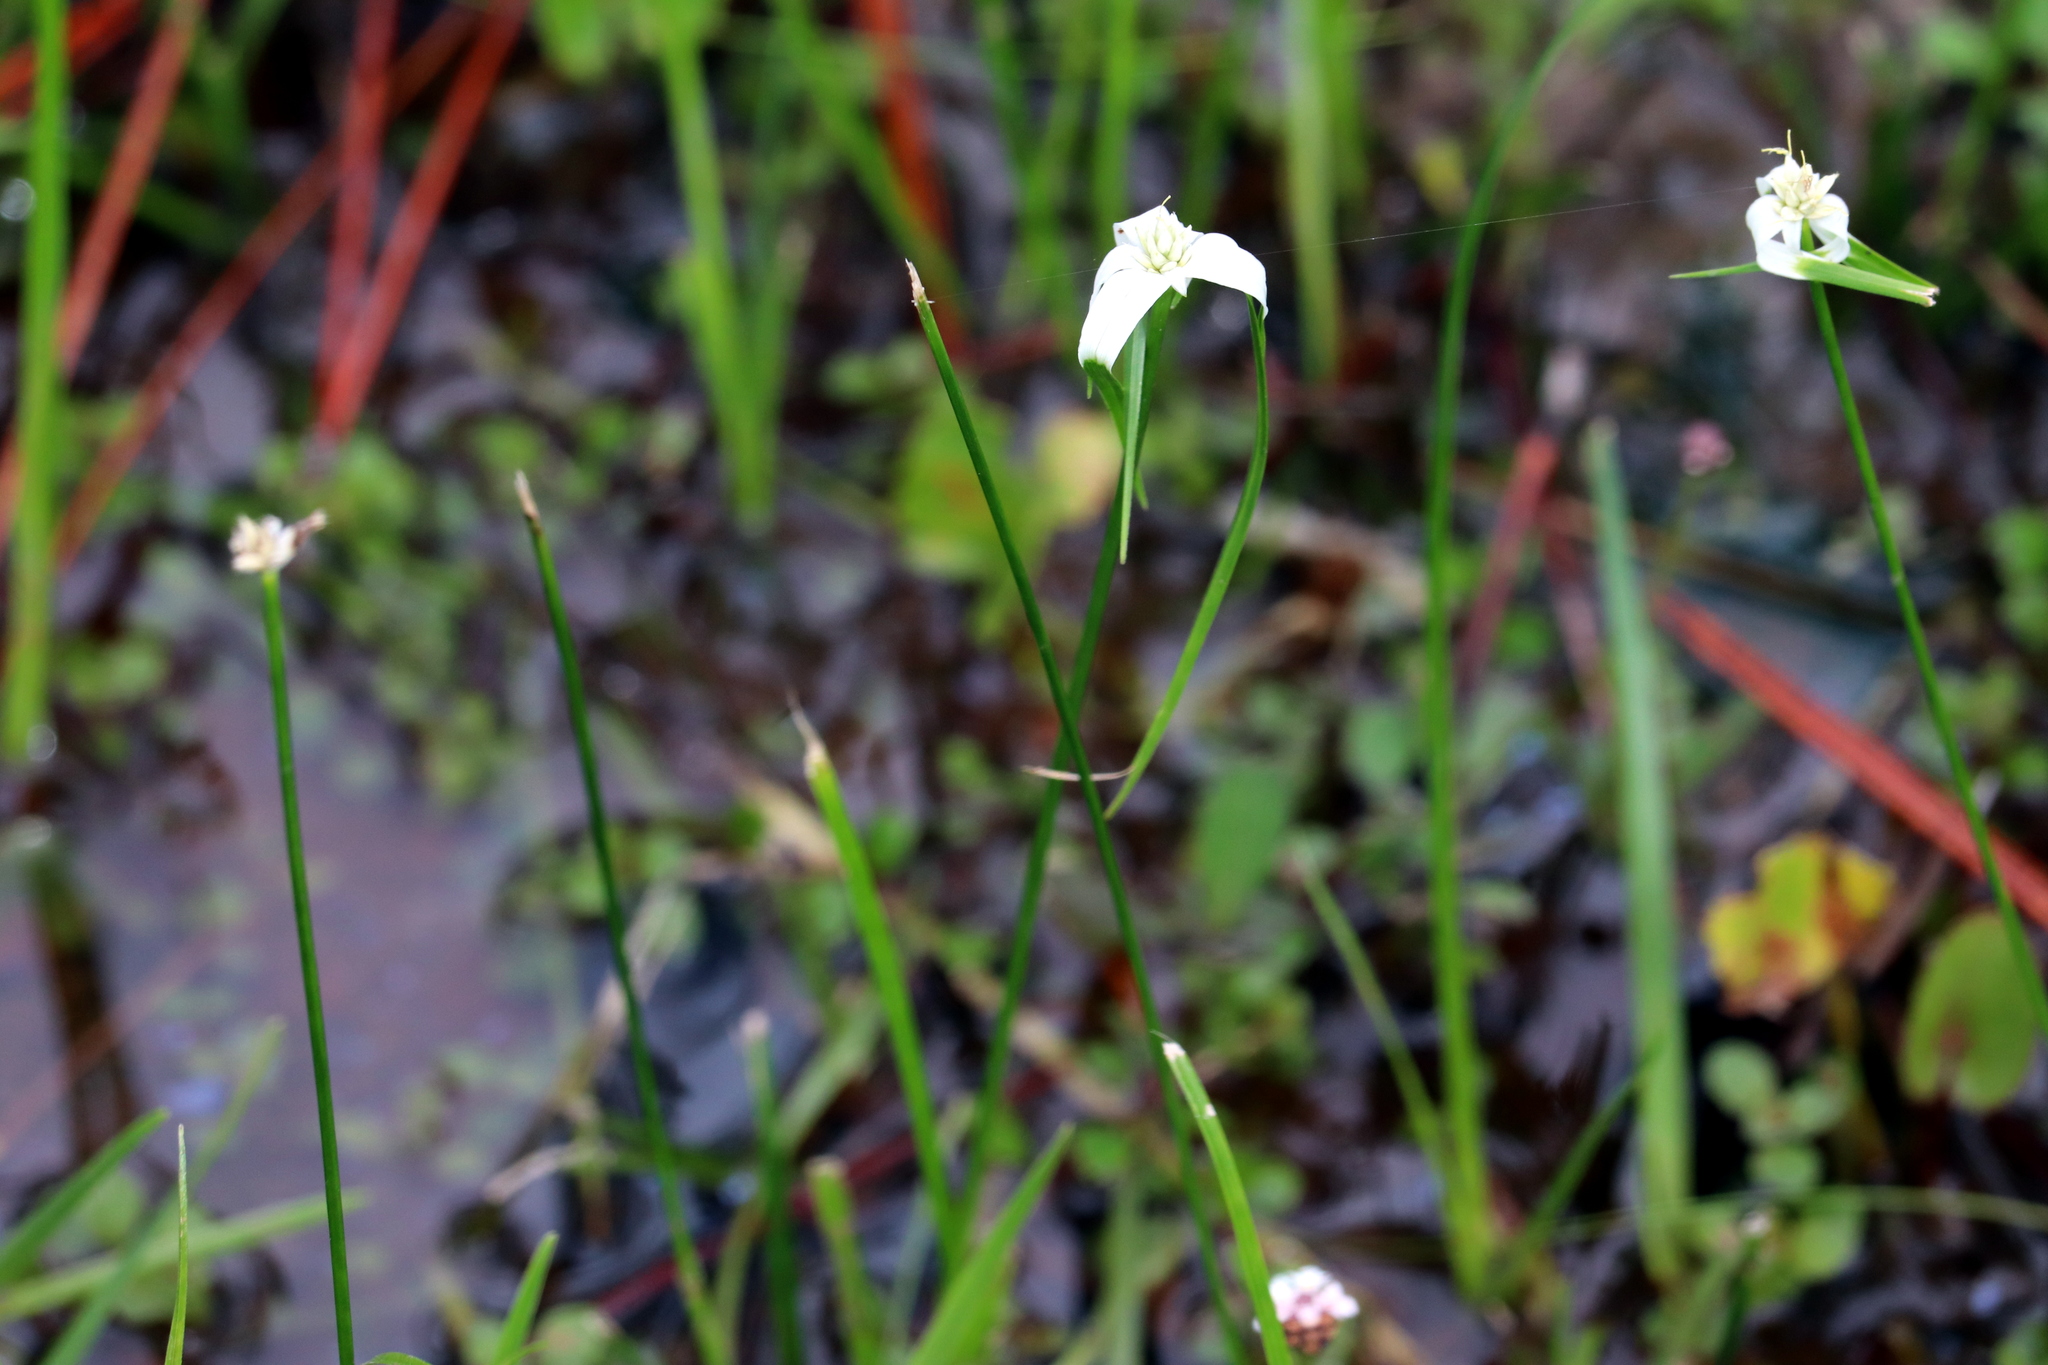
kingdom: Plantae
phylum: Tracheophyta
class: Liliopsida
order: Poales
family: Cyperaceae
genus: Rhynchospora
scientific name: Rhynchospora colorata
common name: Star sedge
